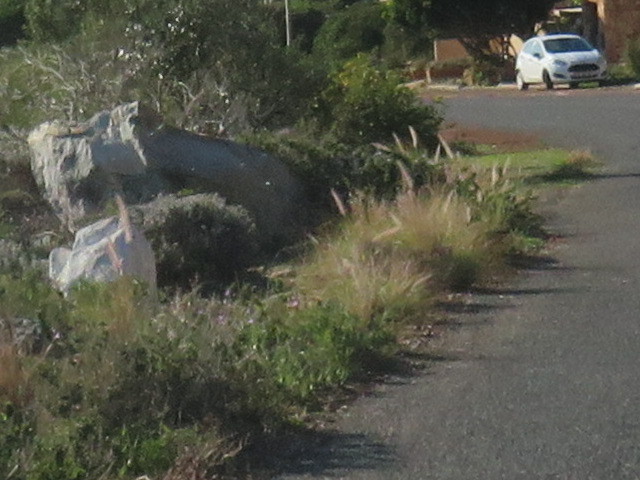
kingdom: Plantae
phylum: Tracheophyta
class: Liliopsida
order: Poales
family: Poaceae
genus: Cenchrus
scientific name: Cenchrus setaceus
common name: Crimson fountaingrass
